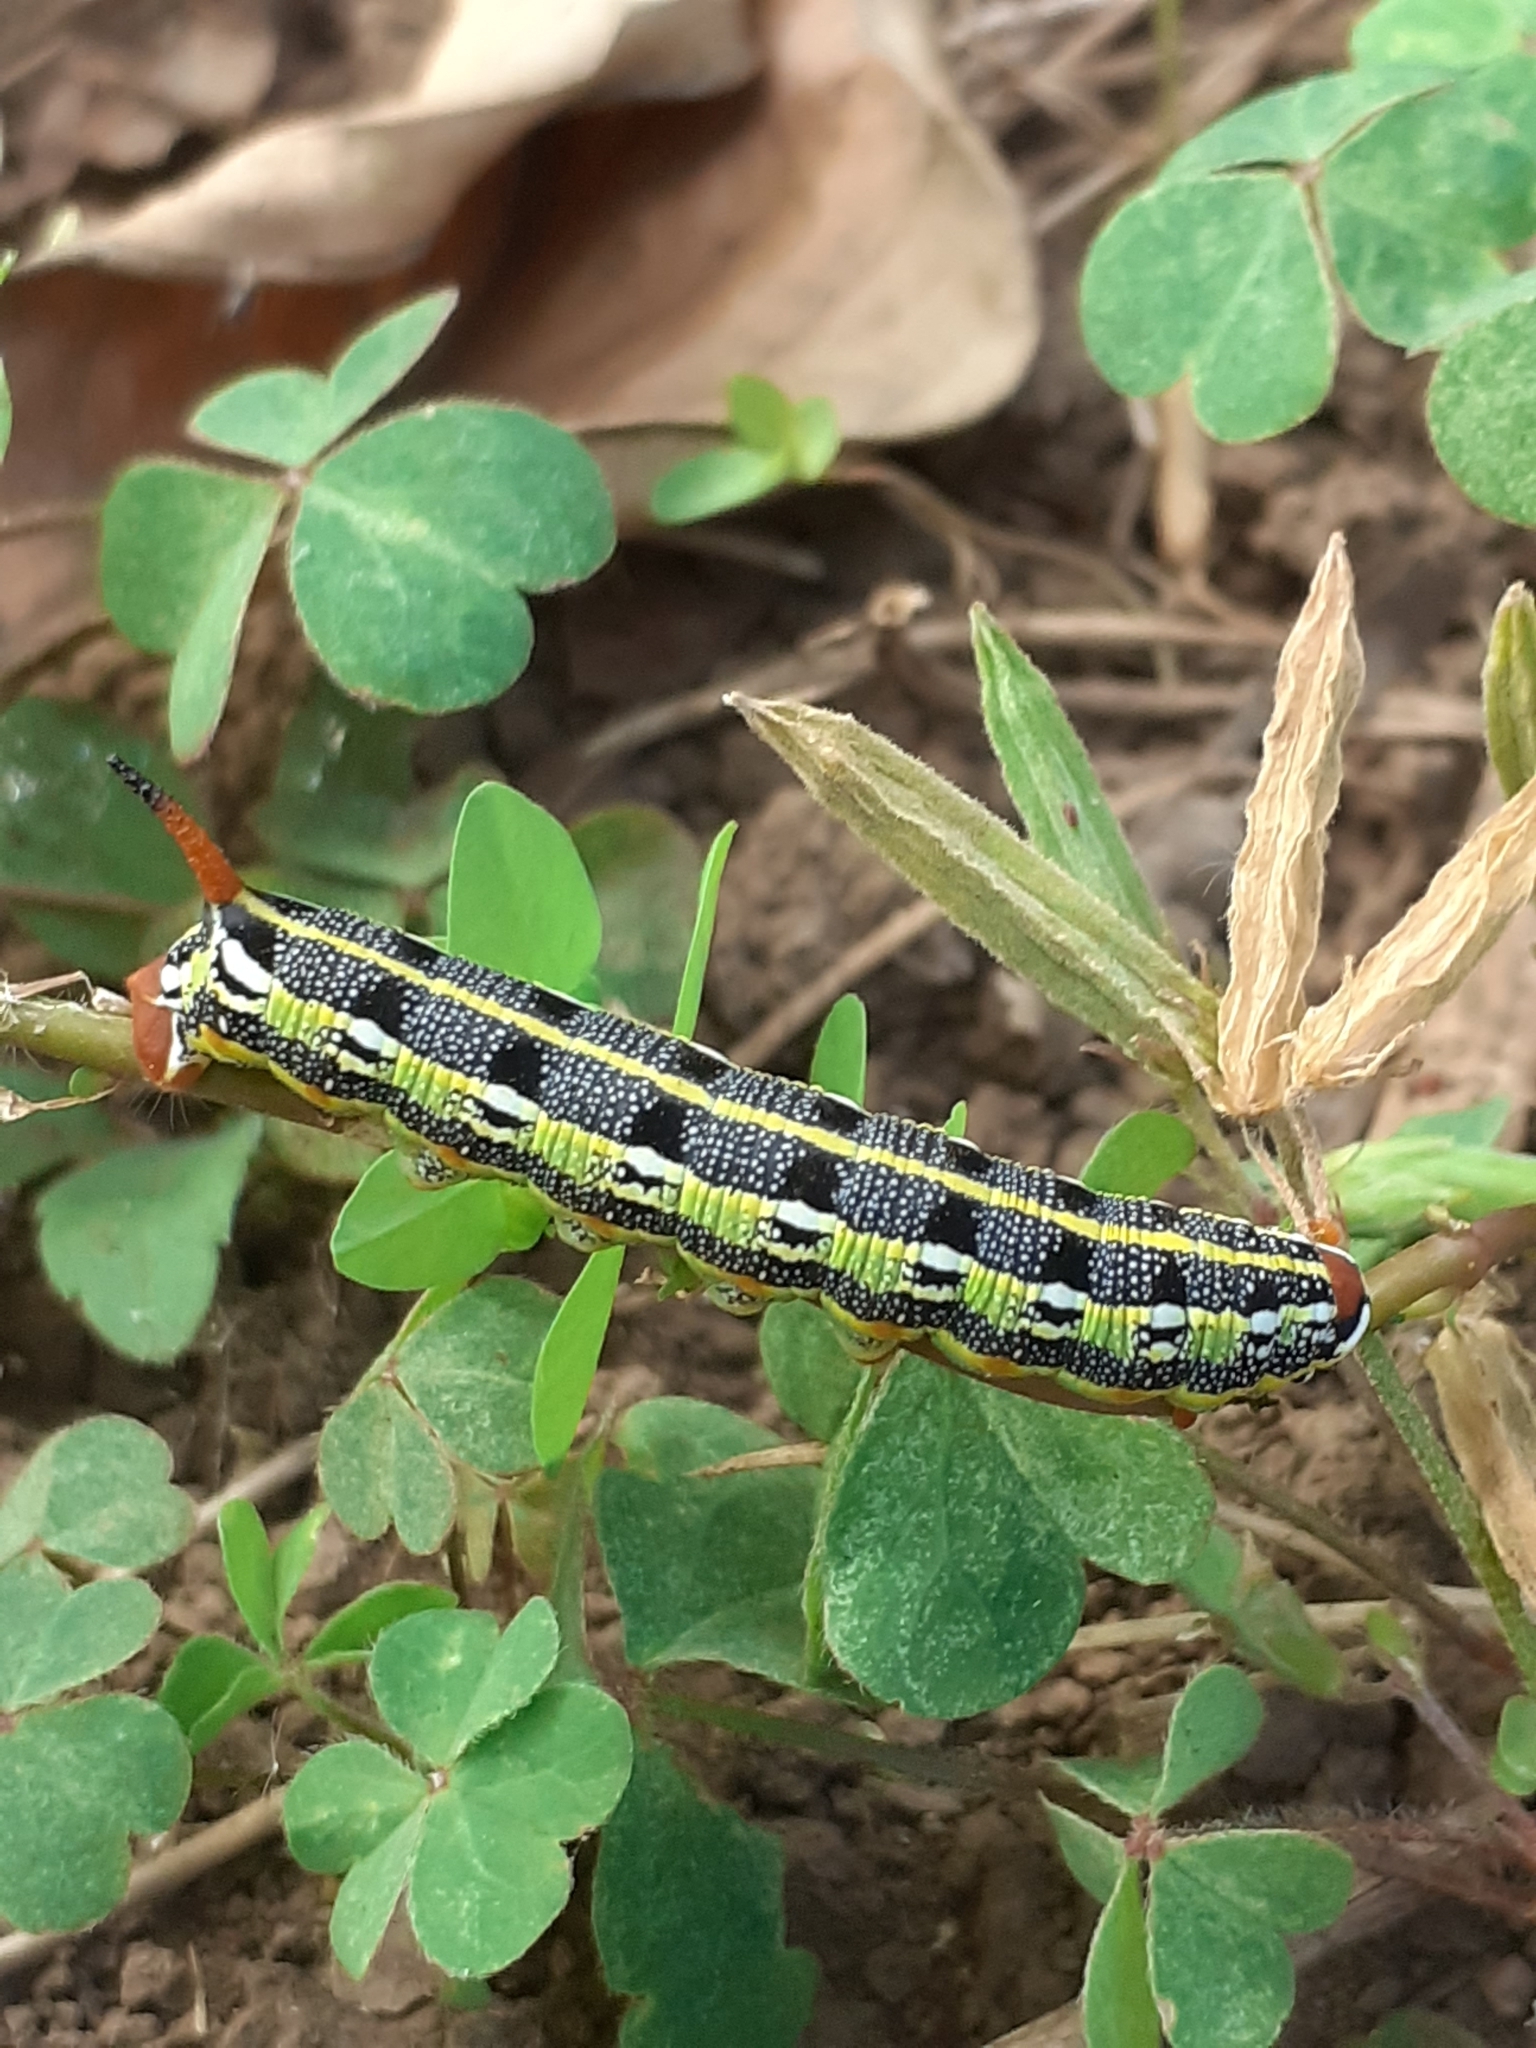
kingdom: Animalia
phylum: Arthropoda
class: Insecta
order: Lepidoptera
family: Sphingidae
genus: Hyles
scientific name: Hyles tithymali
